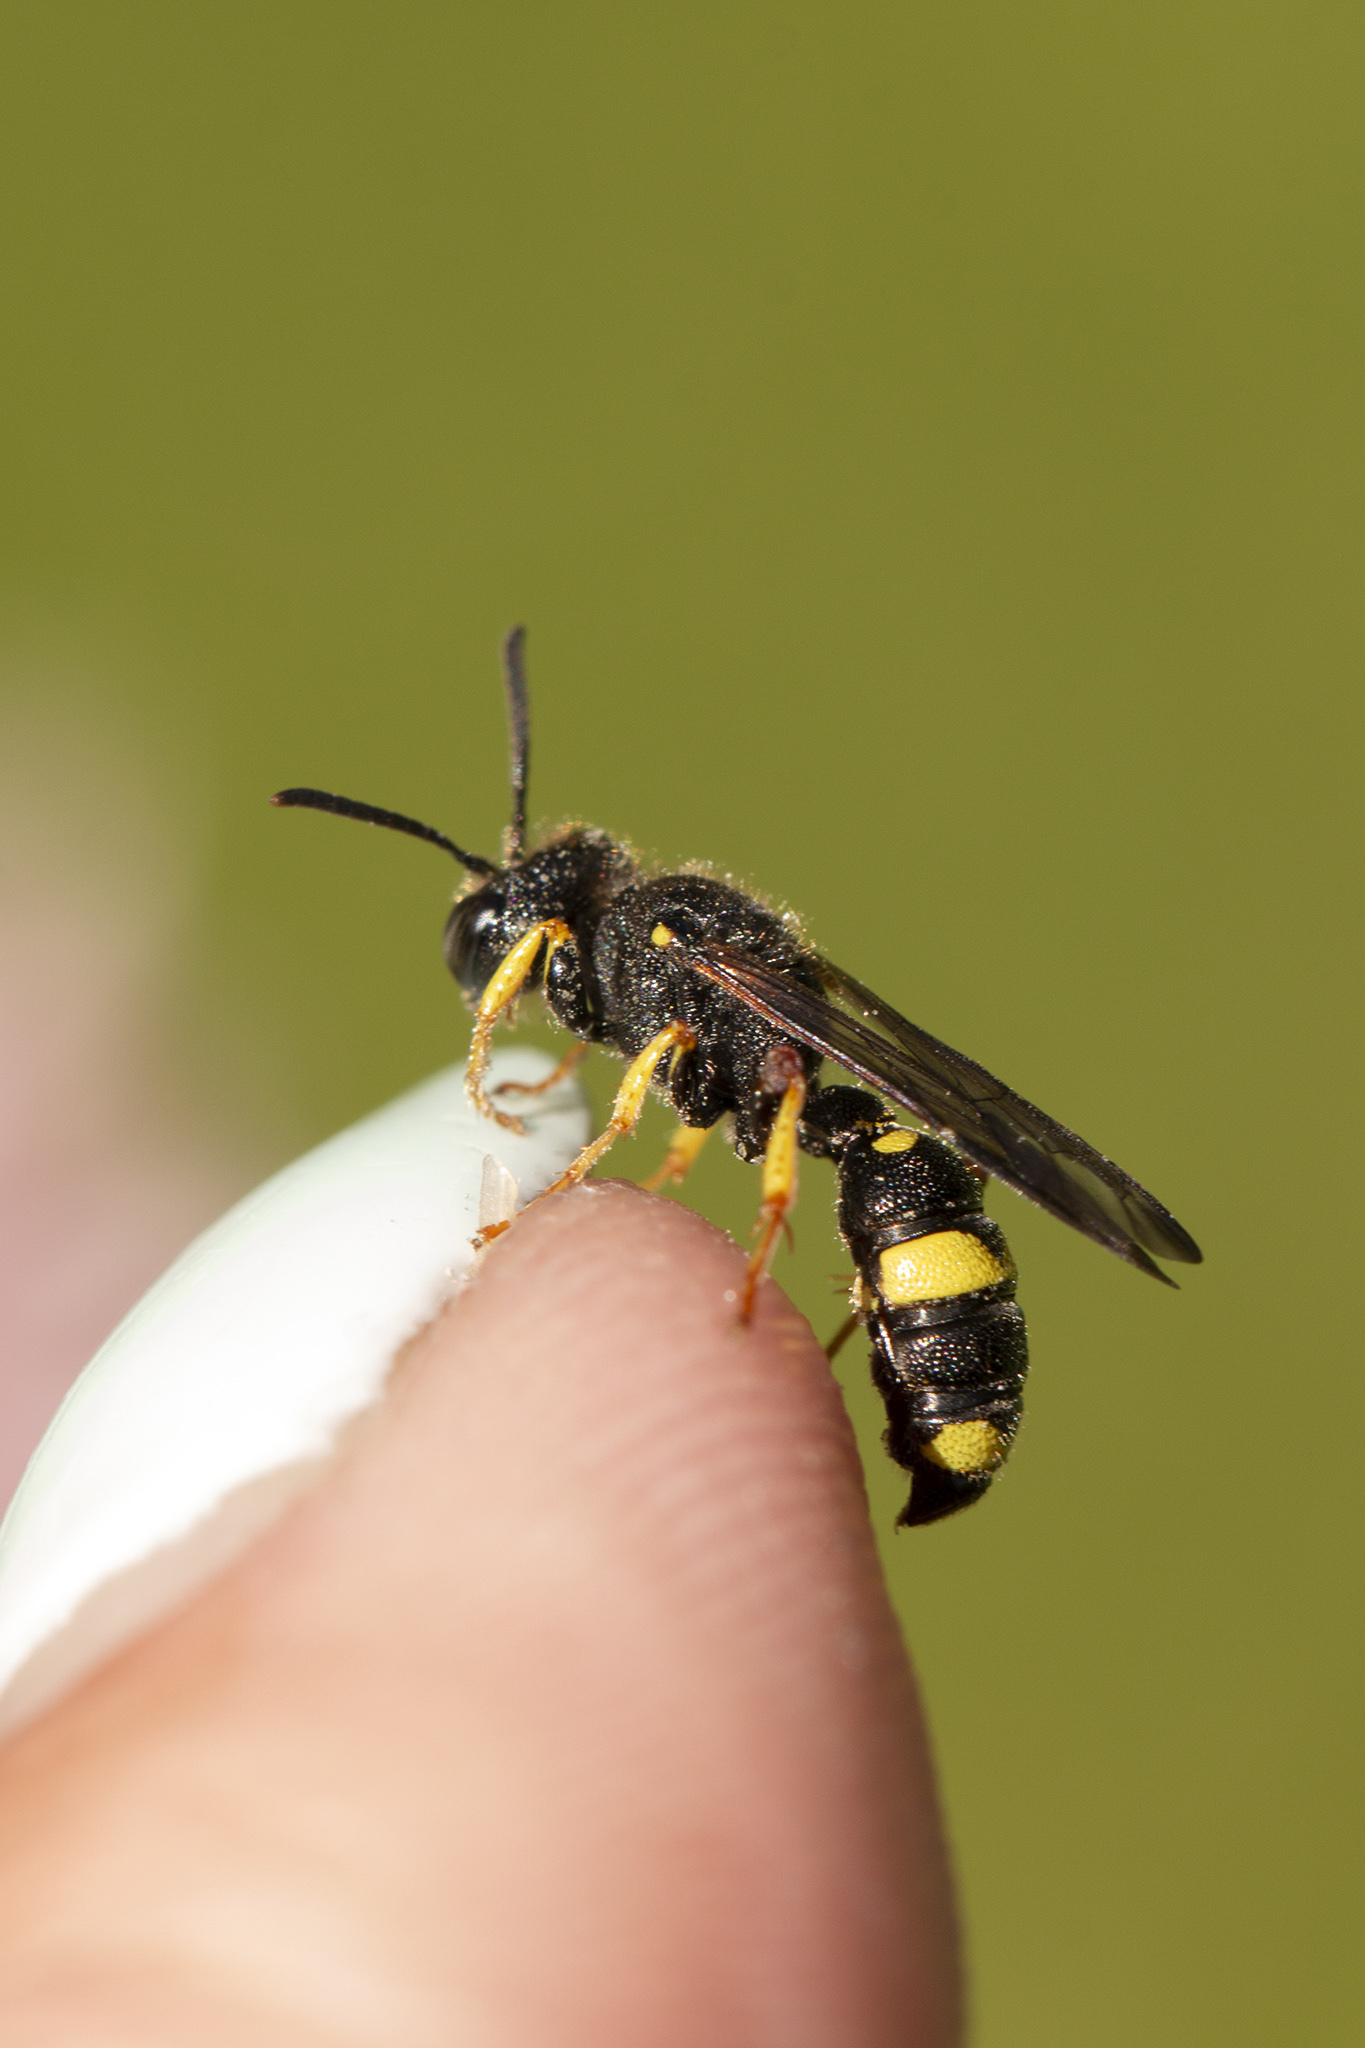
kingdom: Animalia
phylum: Arthropoda
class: Insecta
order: Hymenoptera
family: Crabronidae
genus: Cerceris
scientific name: Cerceris rybyensis
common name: Ornate tailed digger wasp
